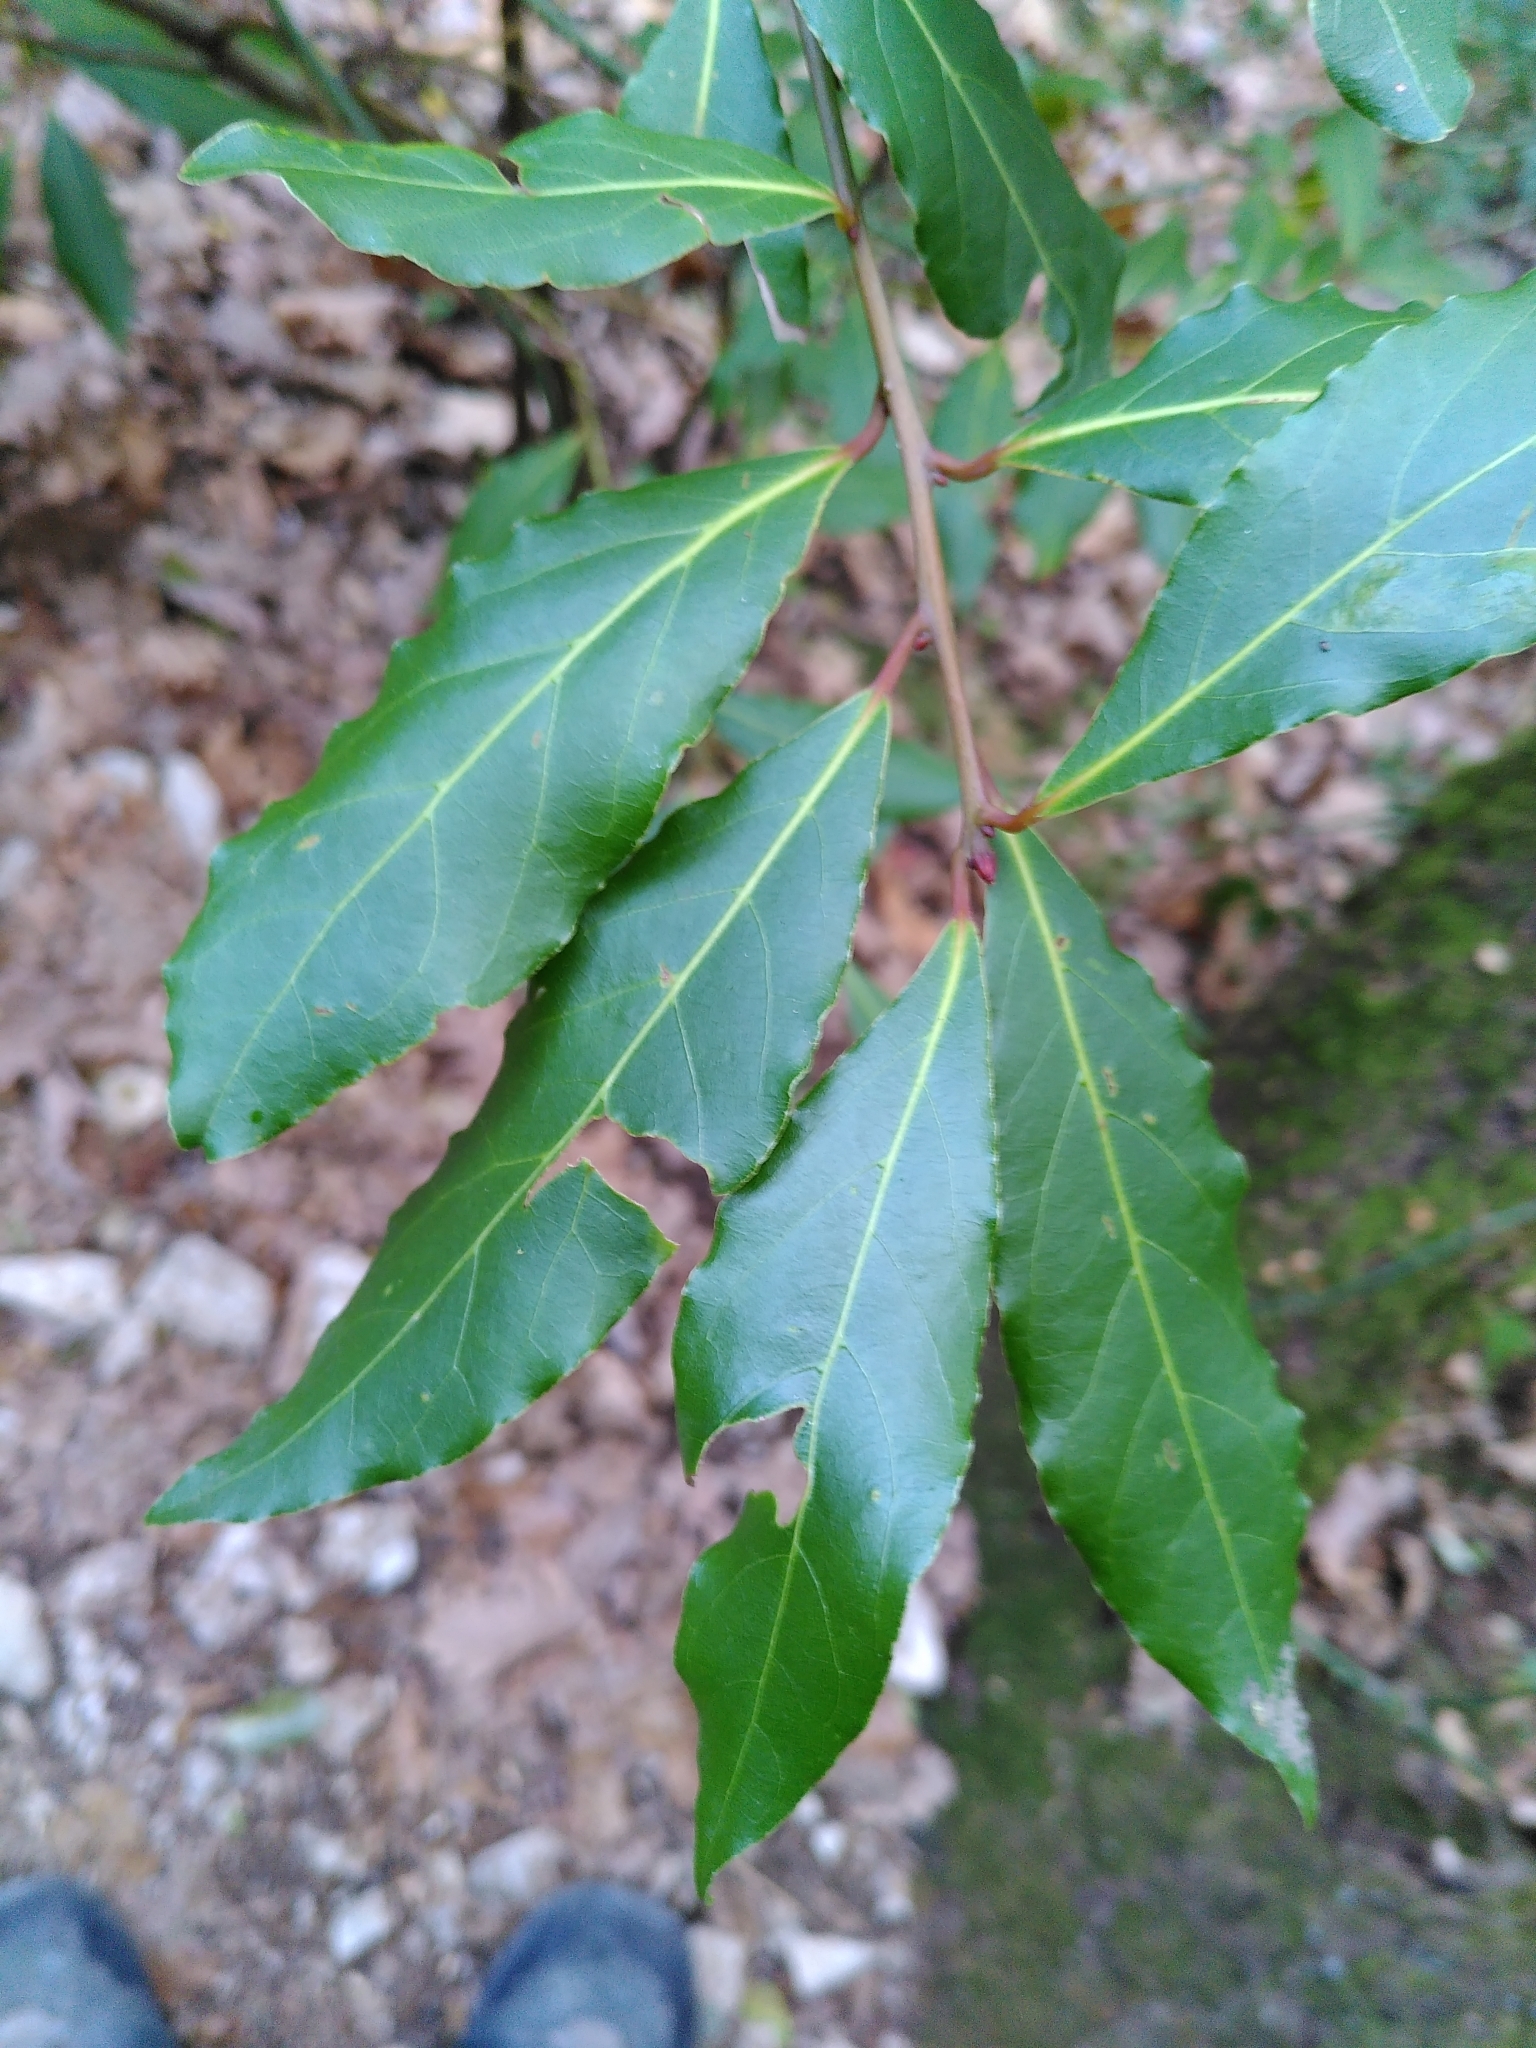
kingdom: Plantae
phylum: Tracheophyta
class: Magnoliopsida
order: Laurales
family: Lauraceae
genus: Laurus
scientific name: Laurus nobilis
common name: Bay
